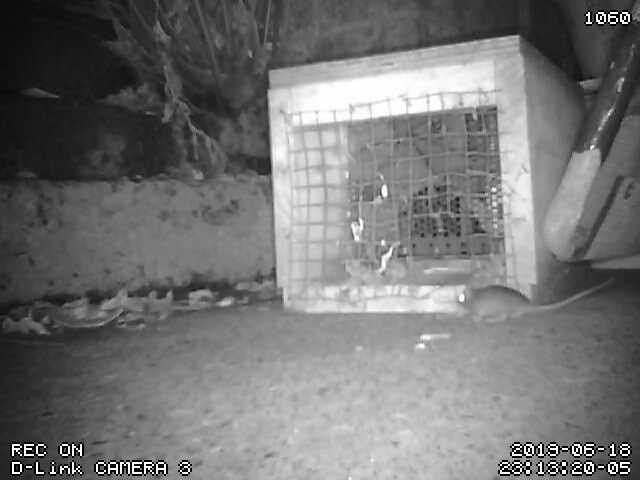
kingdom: Animalia
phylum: Chordata
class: Mammalia
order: Rodentia
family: Muridae
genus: Mus
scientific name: Mus musculus
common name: House mouse
